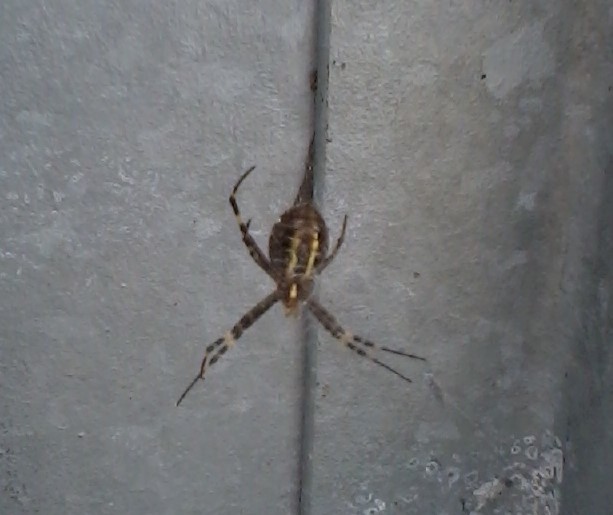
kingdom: Animalia
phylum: Arthropoda
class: Arachnida
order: Araneae
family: Araneidae
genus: Argiope
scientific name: Argiope bruennichi
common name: Wasp spider
